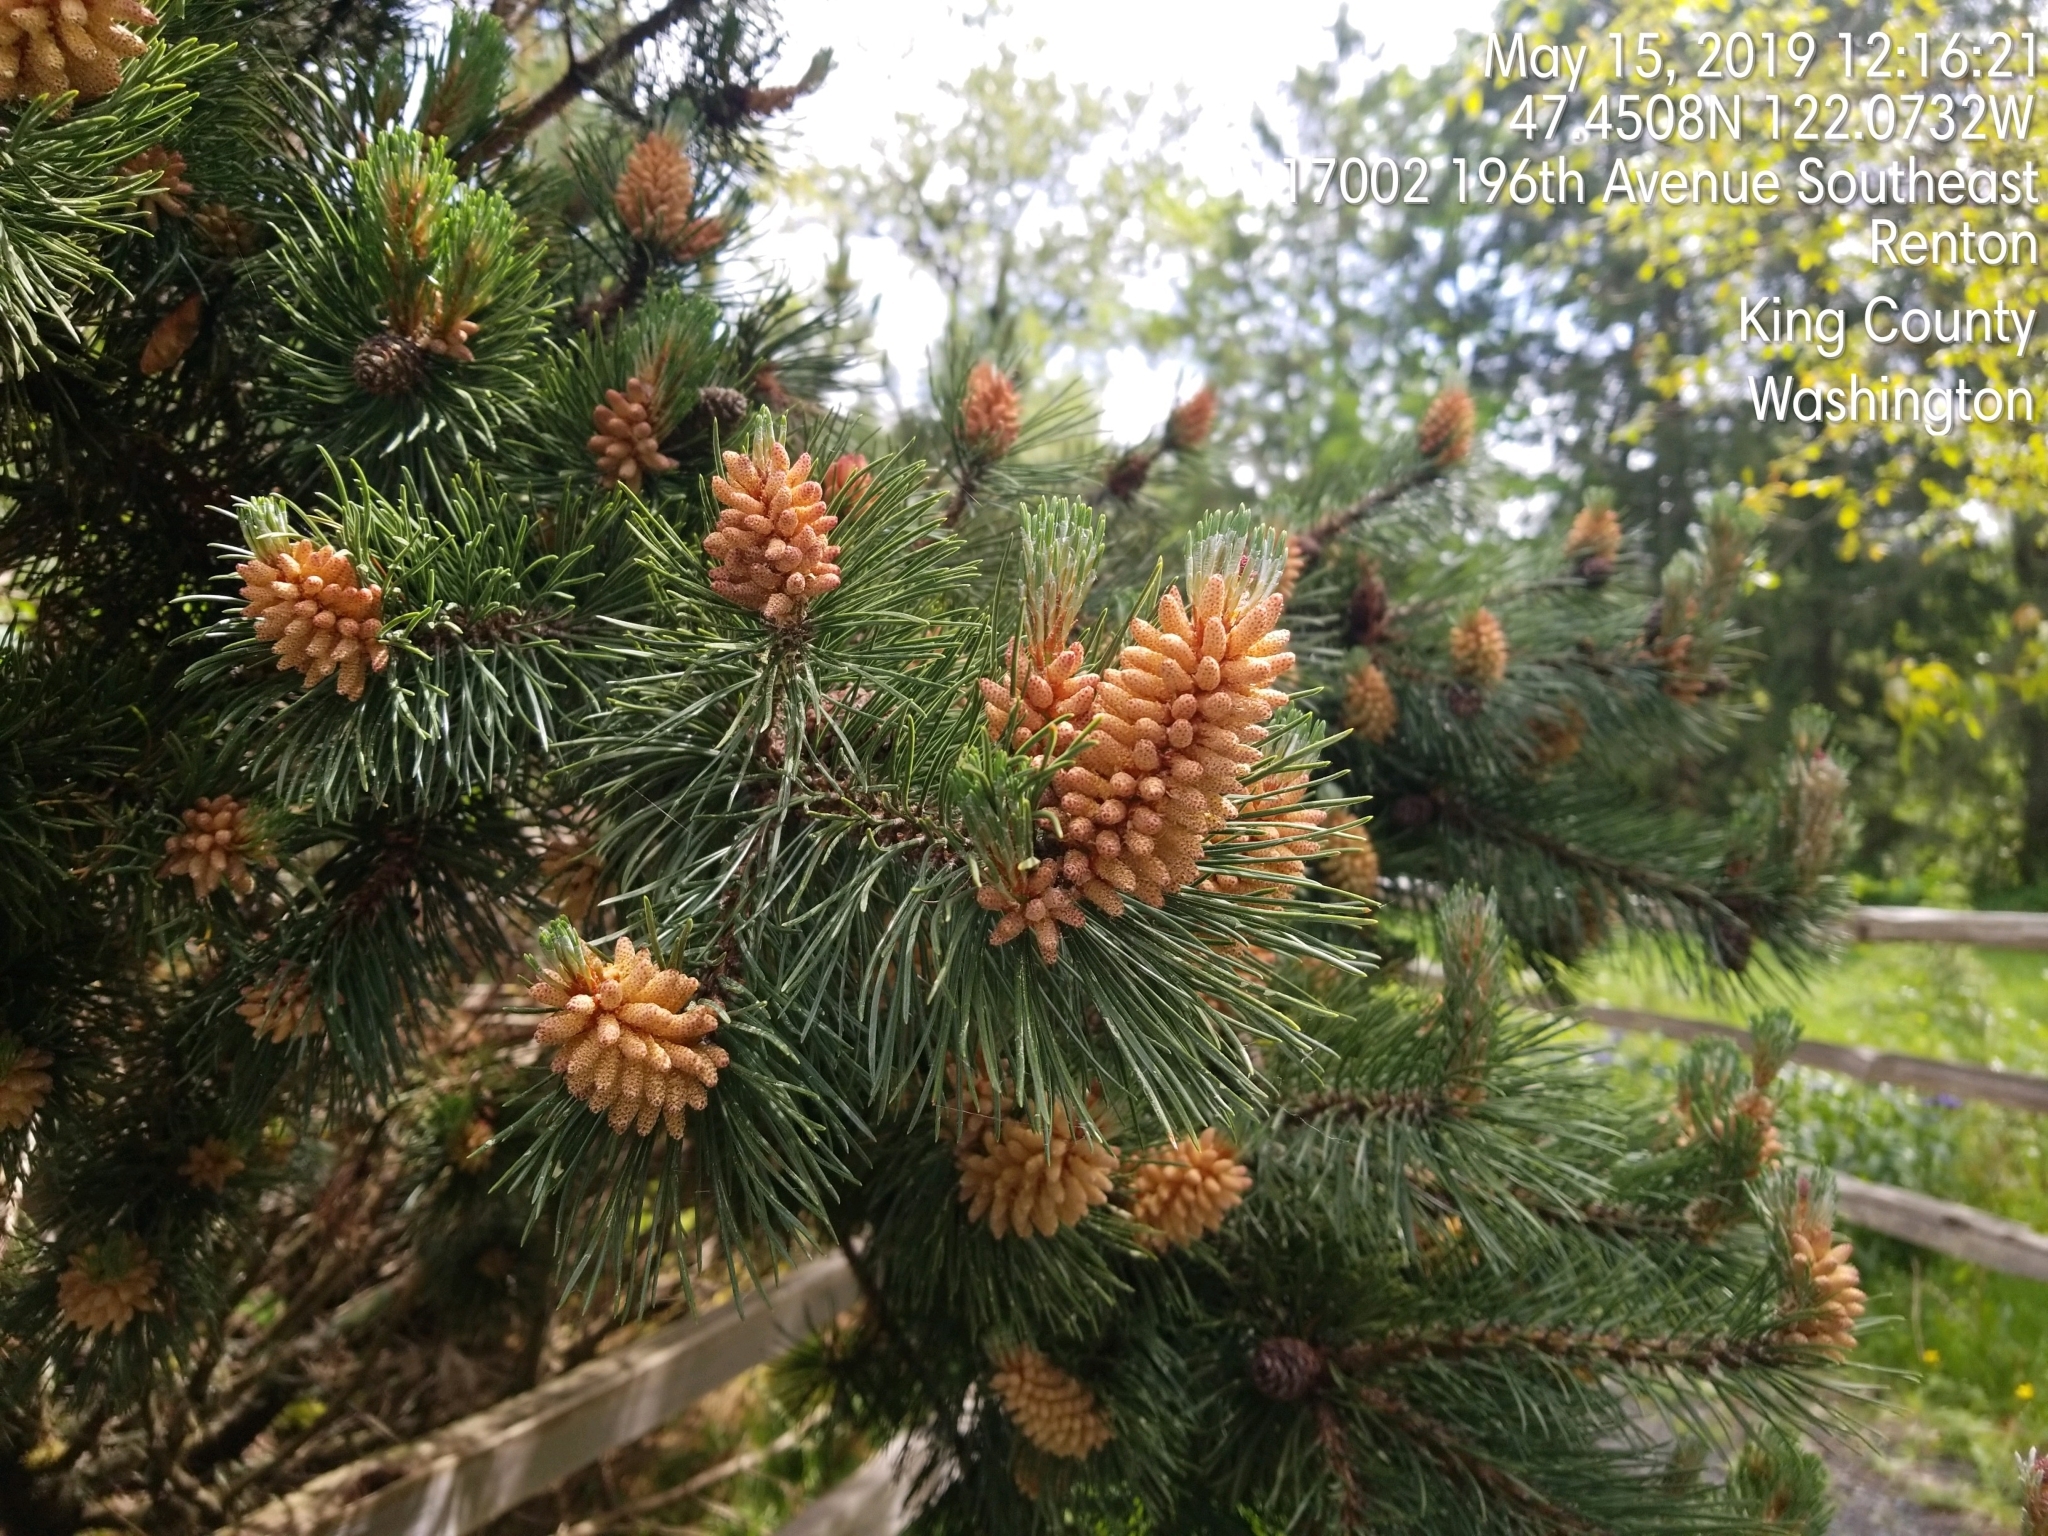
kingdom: Plantae
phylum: Tracheophyta
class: Pinopsida
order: Pinales
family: Pinaceae
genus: Pinus
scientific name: Pinus contorta
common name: Lodgepole pine
